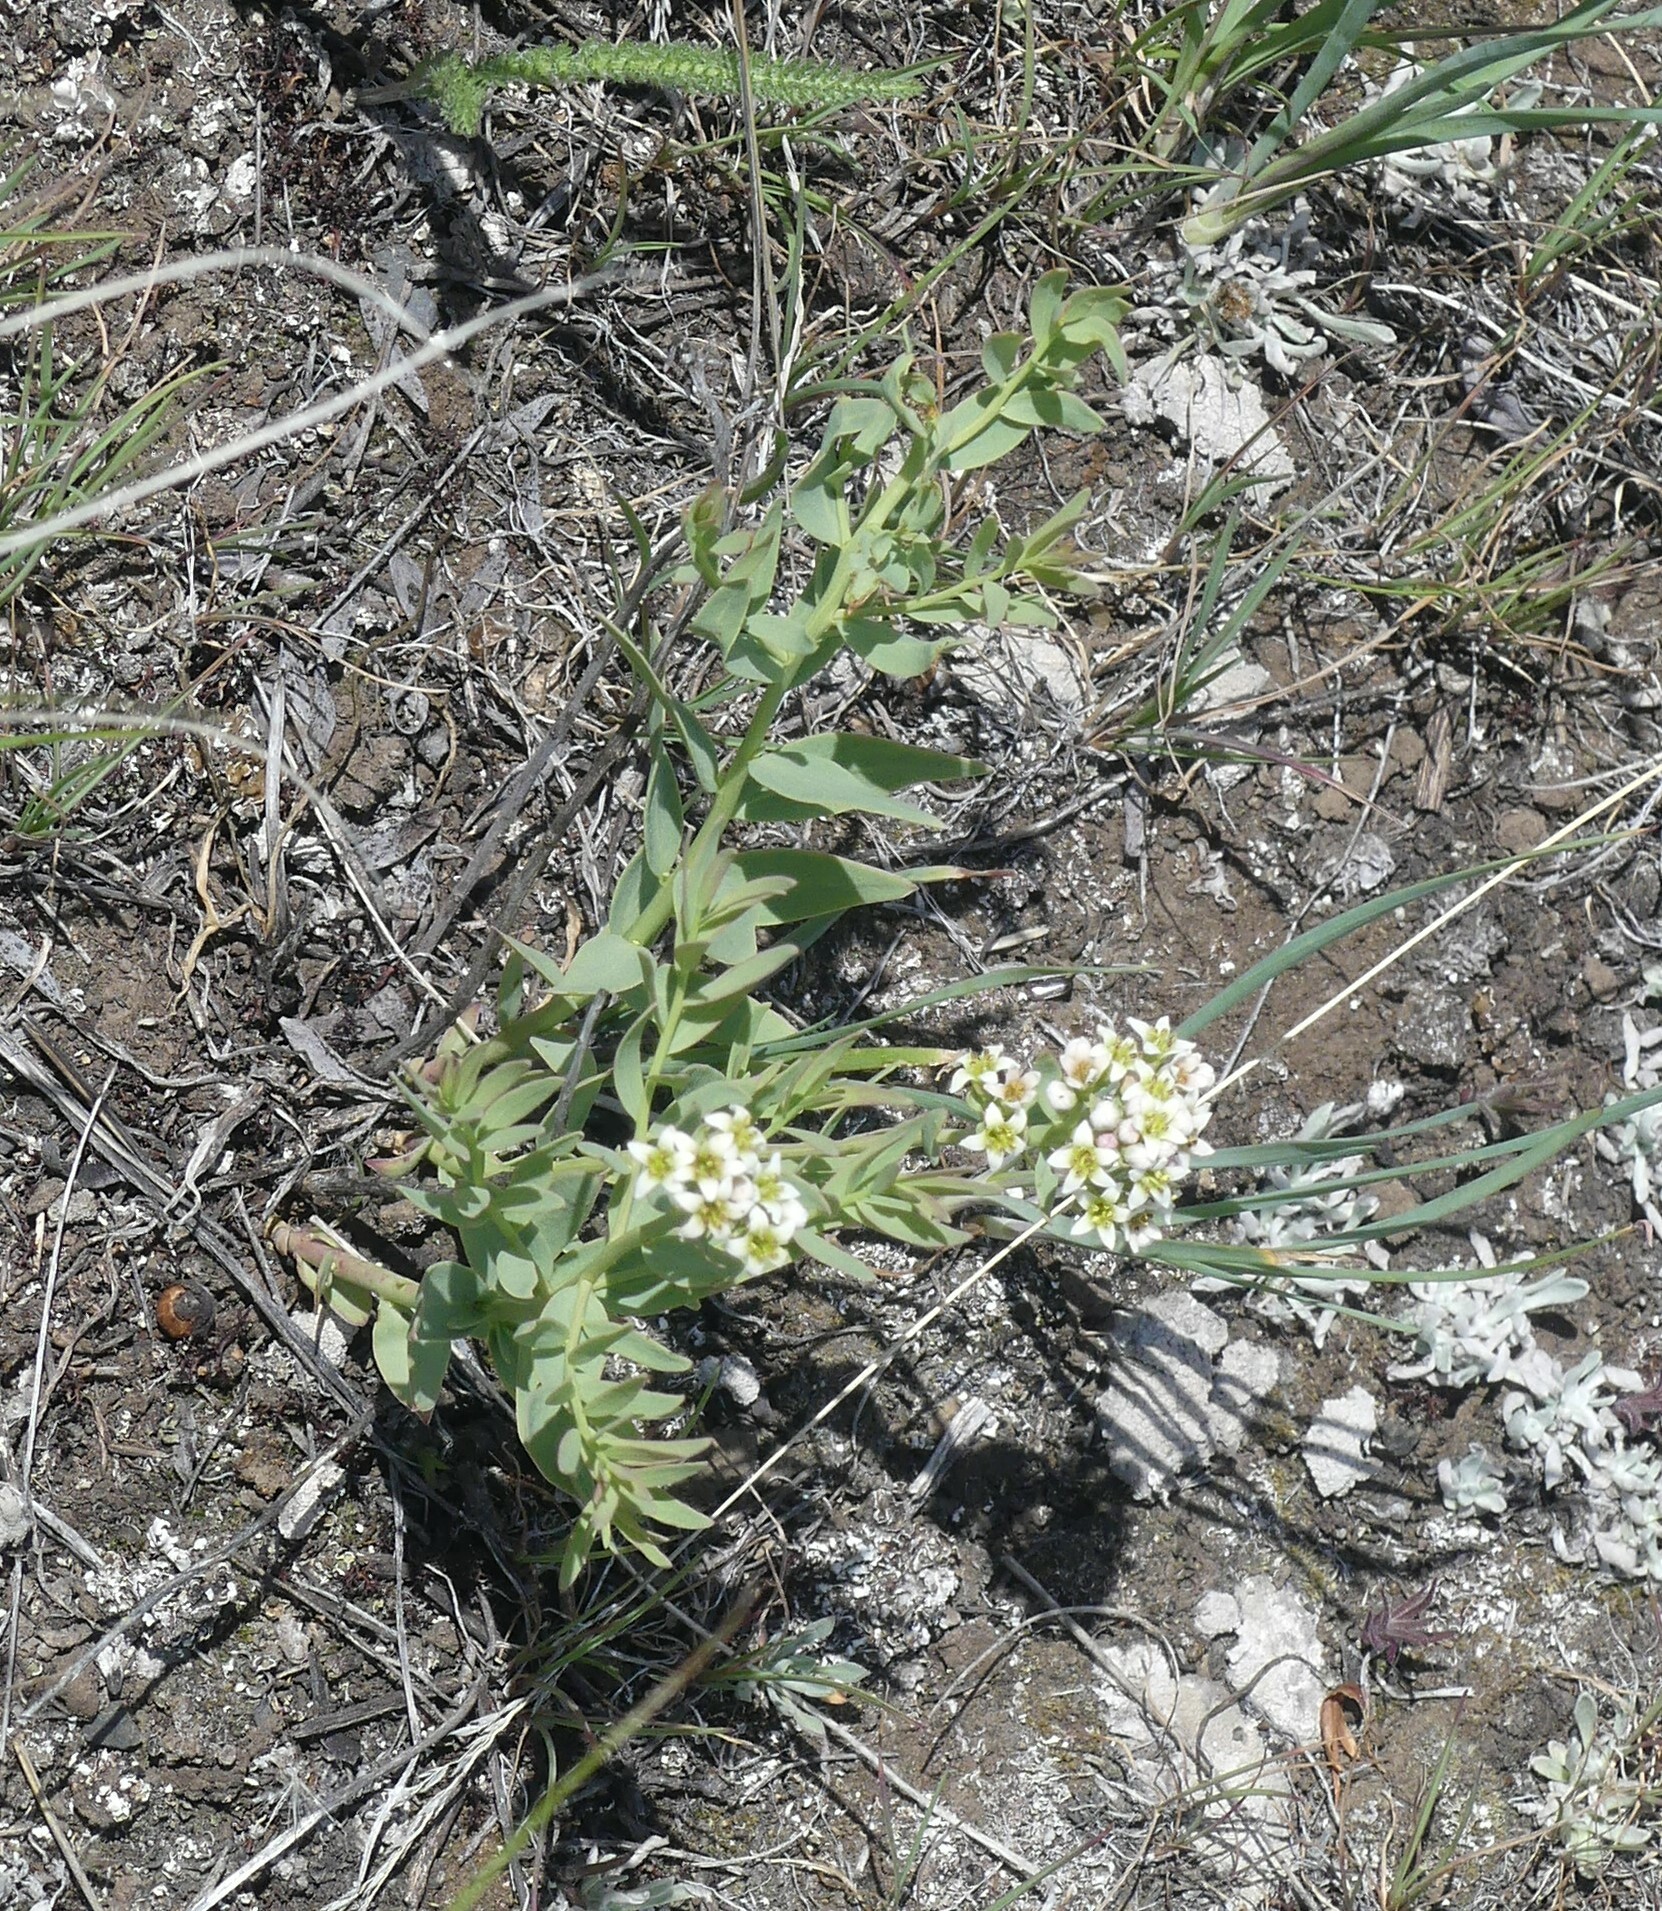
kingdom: Plantae
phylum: Tracheophyta
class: Magnoliopsida
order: Santalales
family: Comandraceae
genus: Comandra
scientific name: Comandra umbellata
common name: Bastard toadflax
